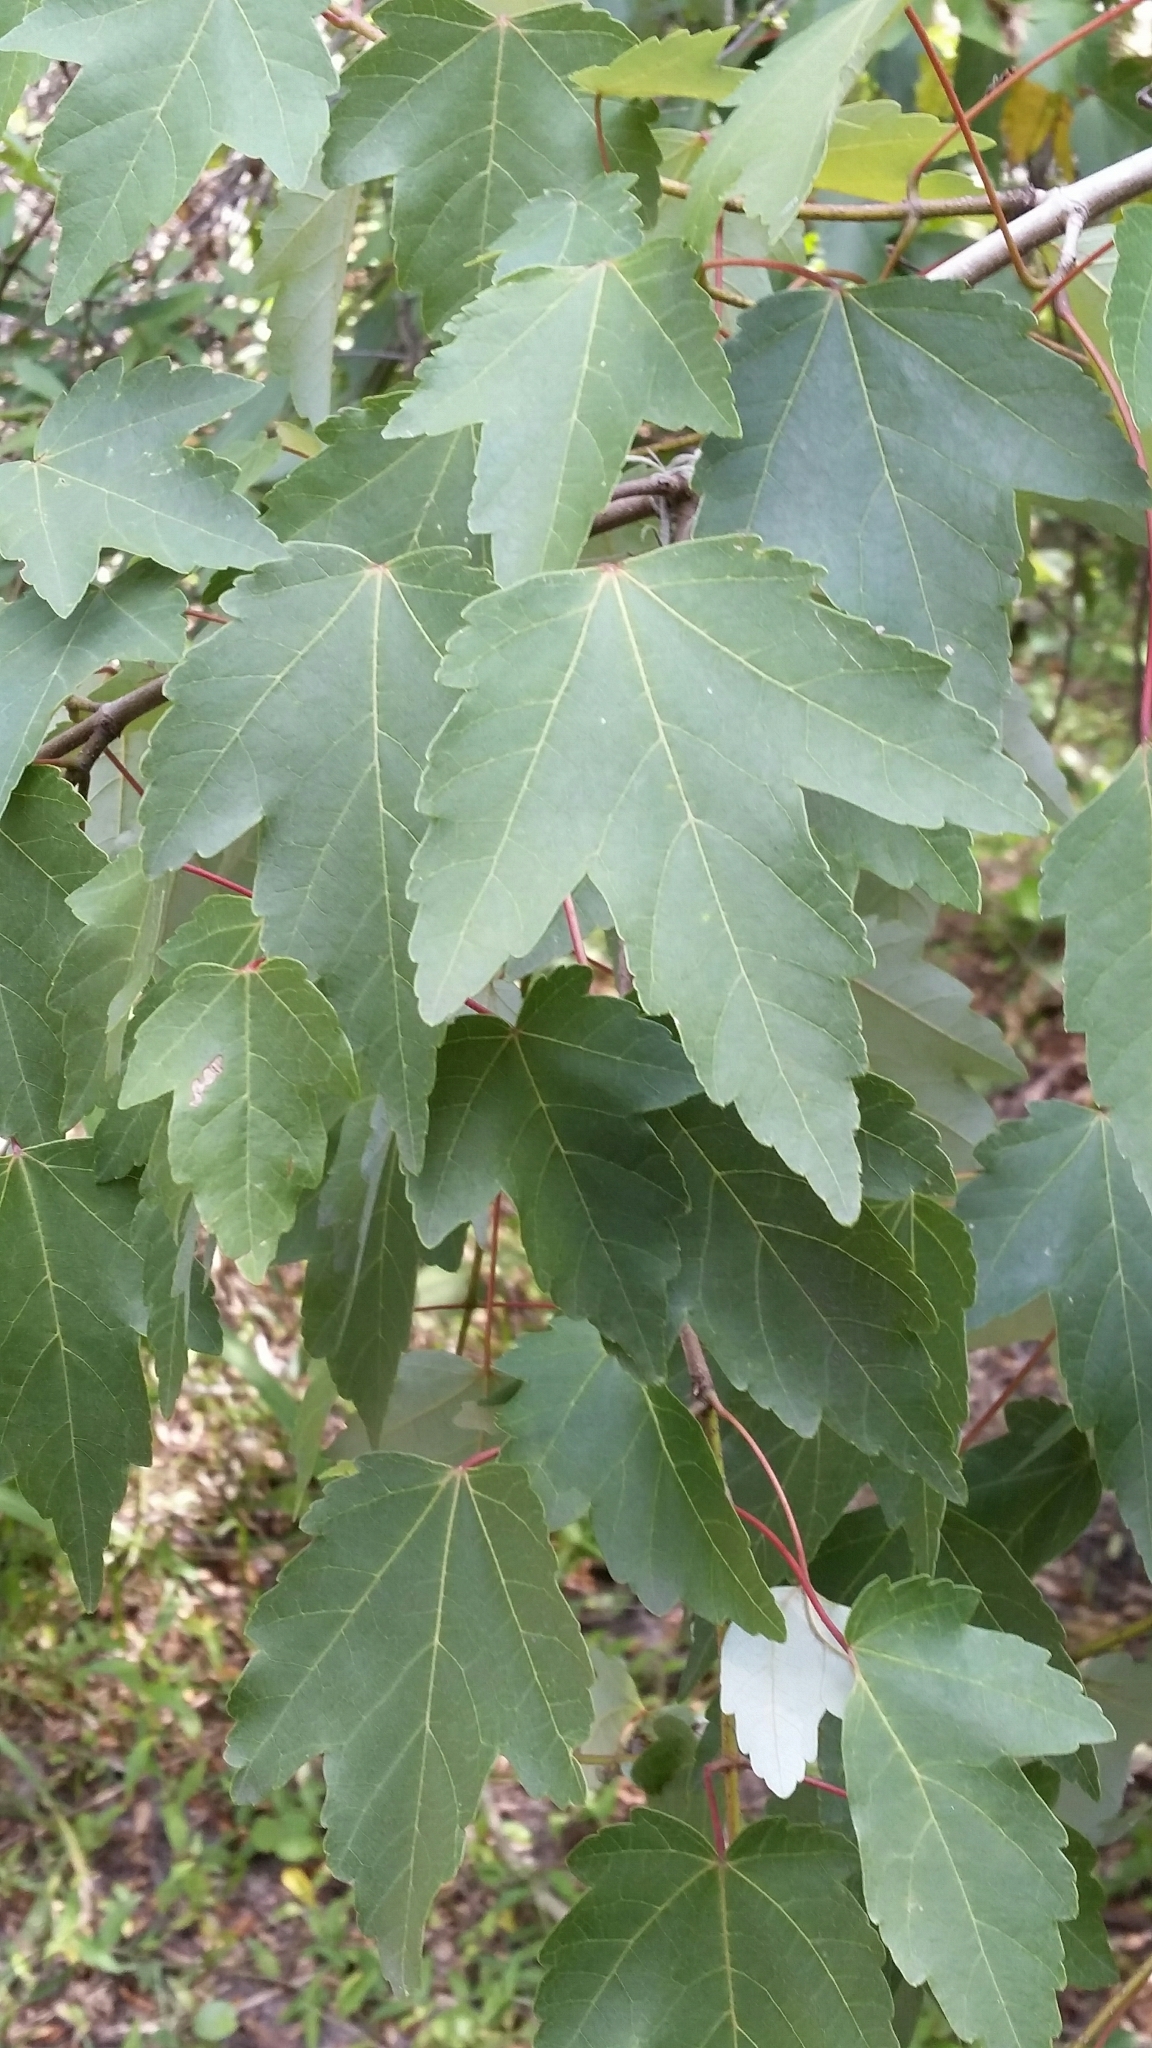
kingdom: Plantae
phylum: Tracheophyta
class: Magnoliopsida
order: Sapindales
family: Sapindaceae
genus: Acer
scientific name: Acer rubrum
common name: Red maple
